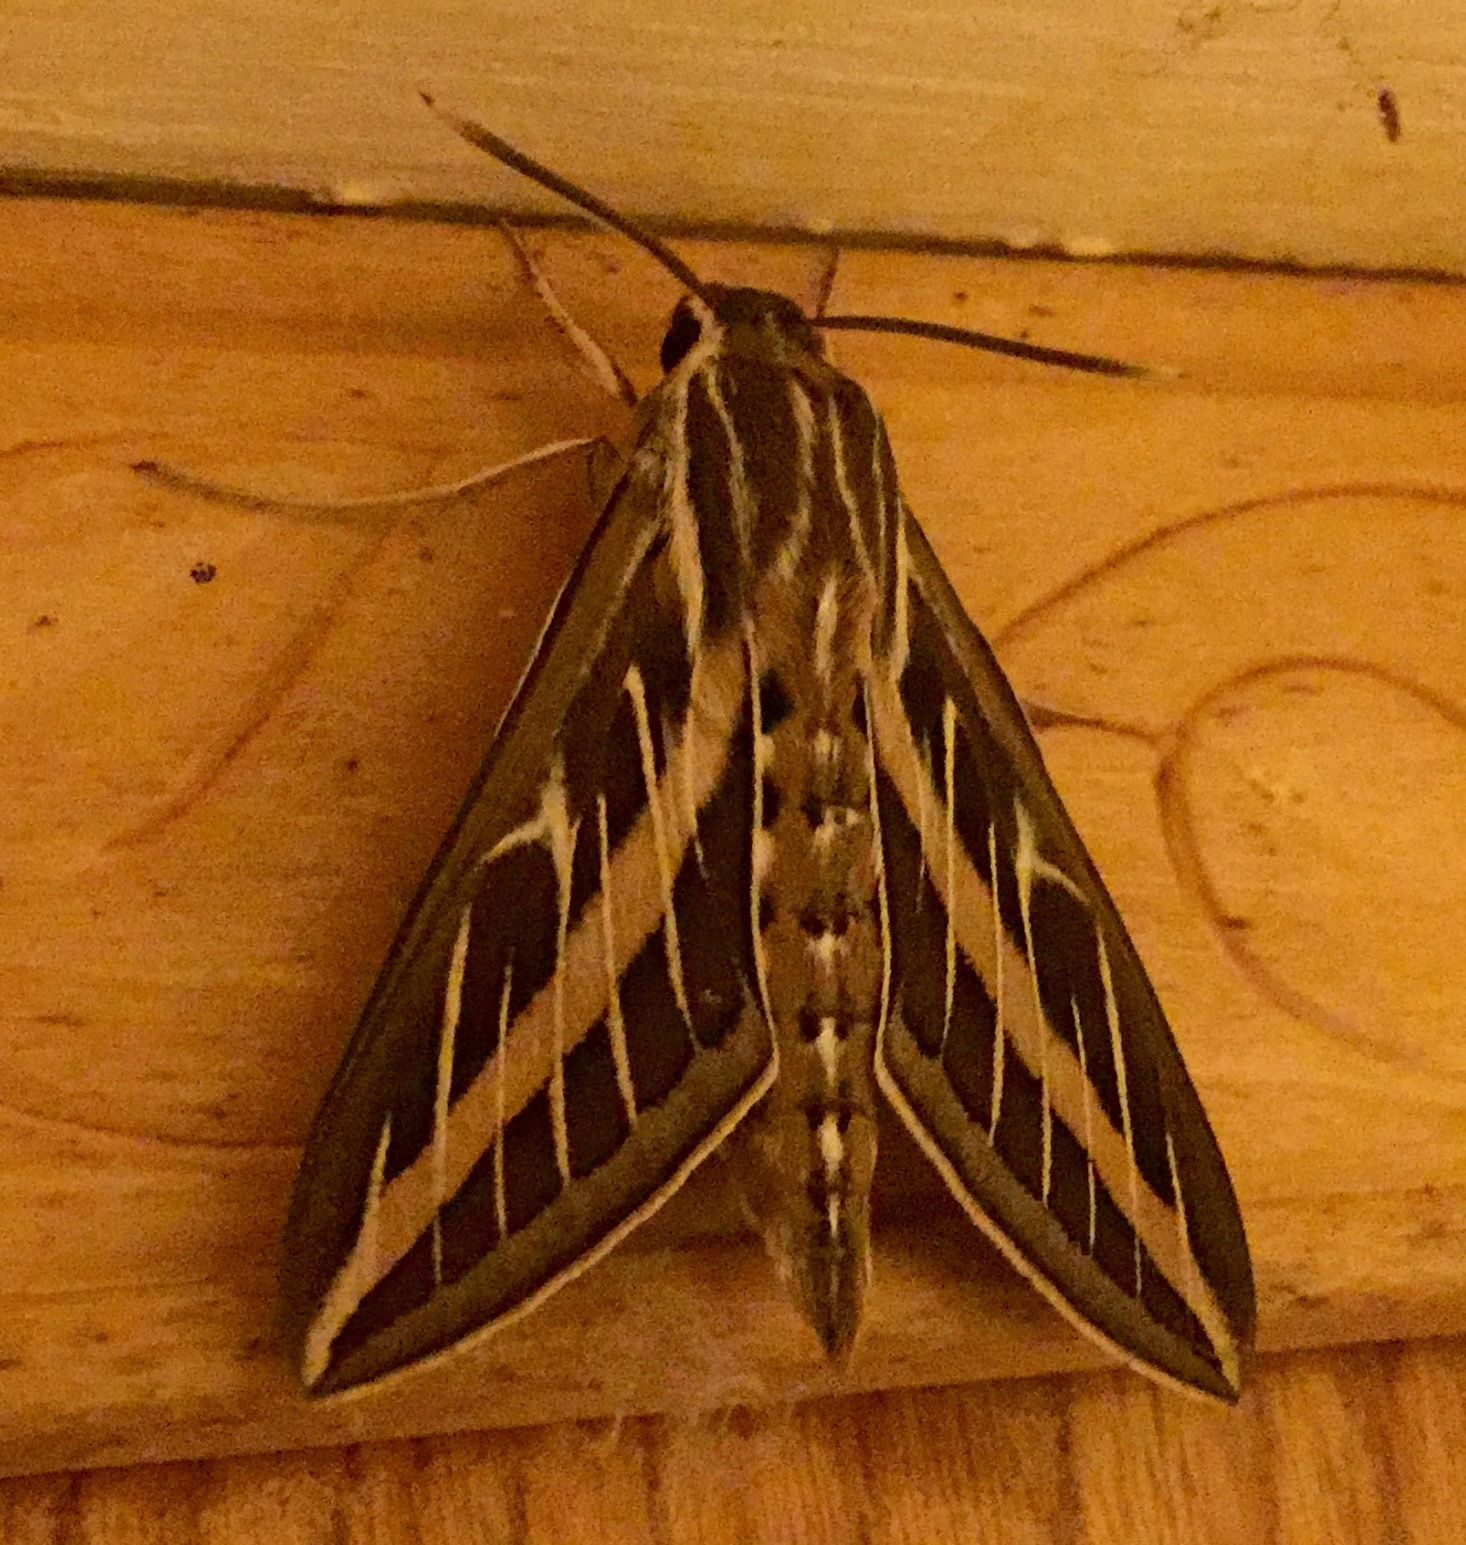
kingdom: Animalia
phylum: Arthropoda
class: Insecta
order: Lepidoptera
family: Sphingidae
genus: Hyles
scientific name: Hyles lineata
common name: White-lined sphinx
